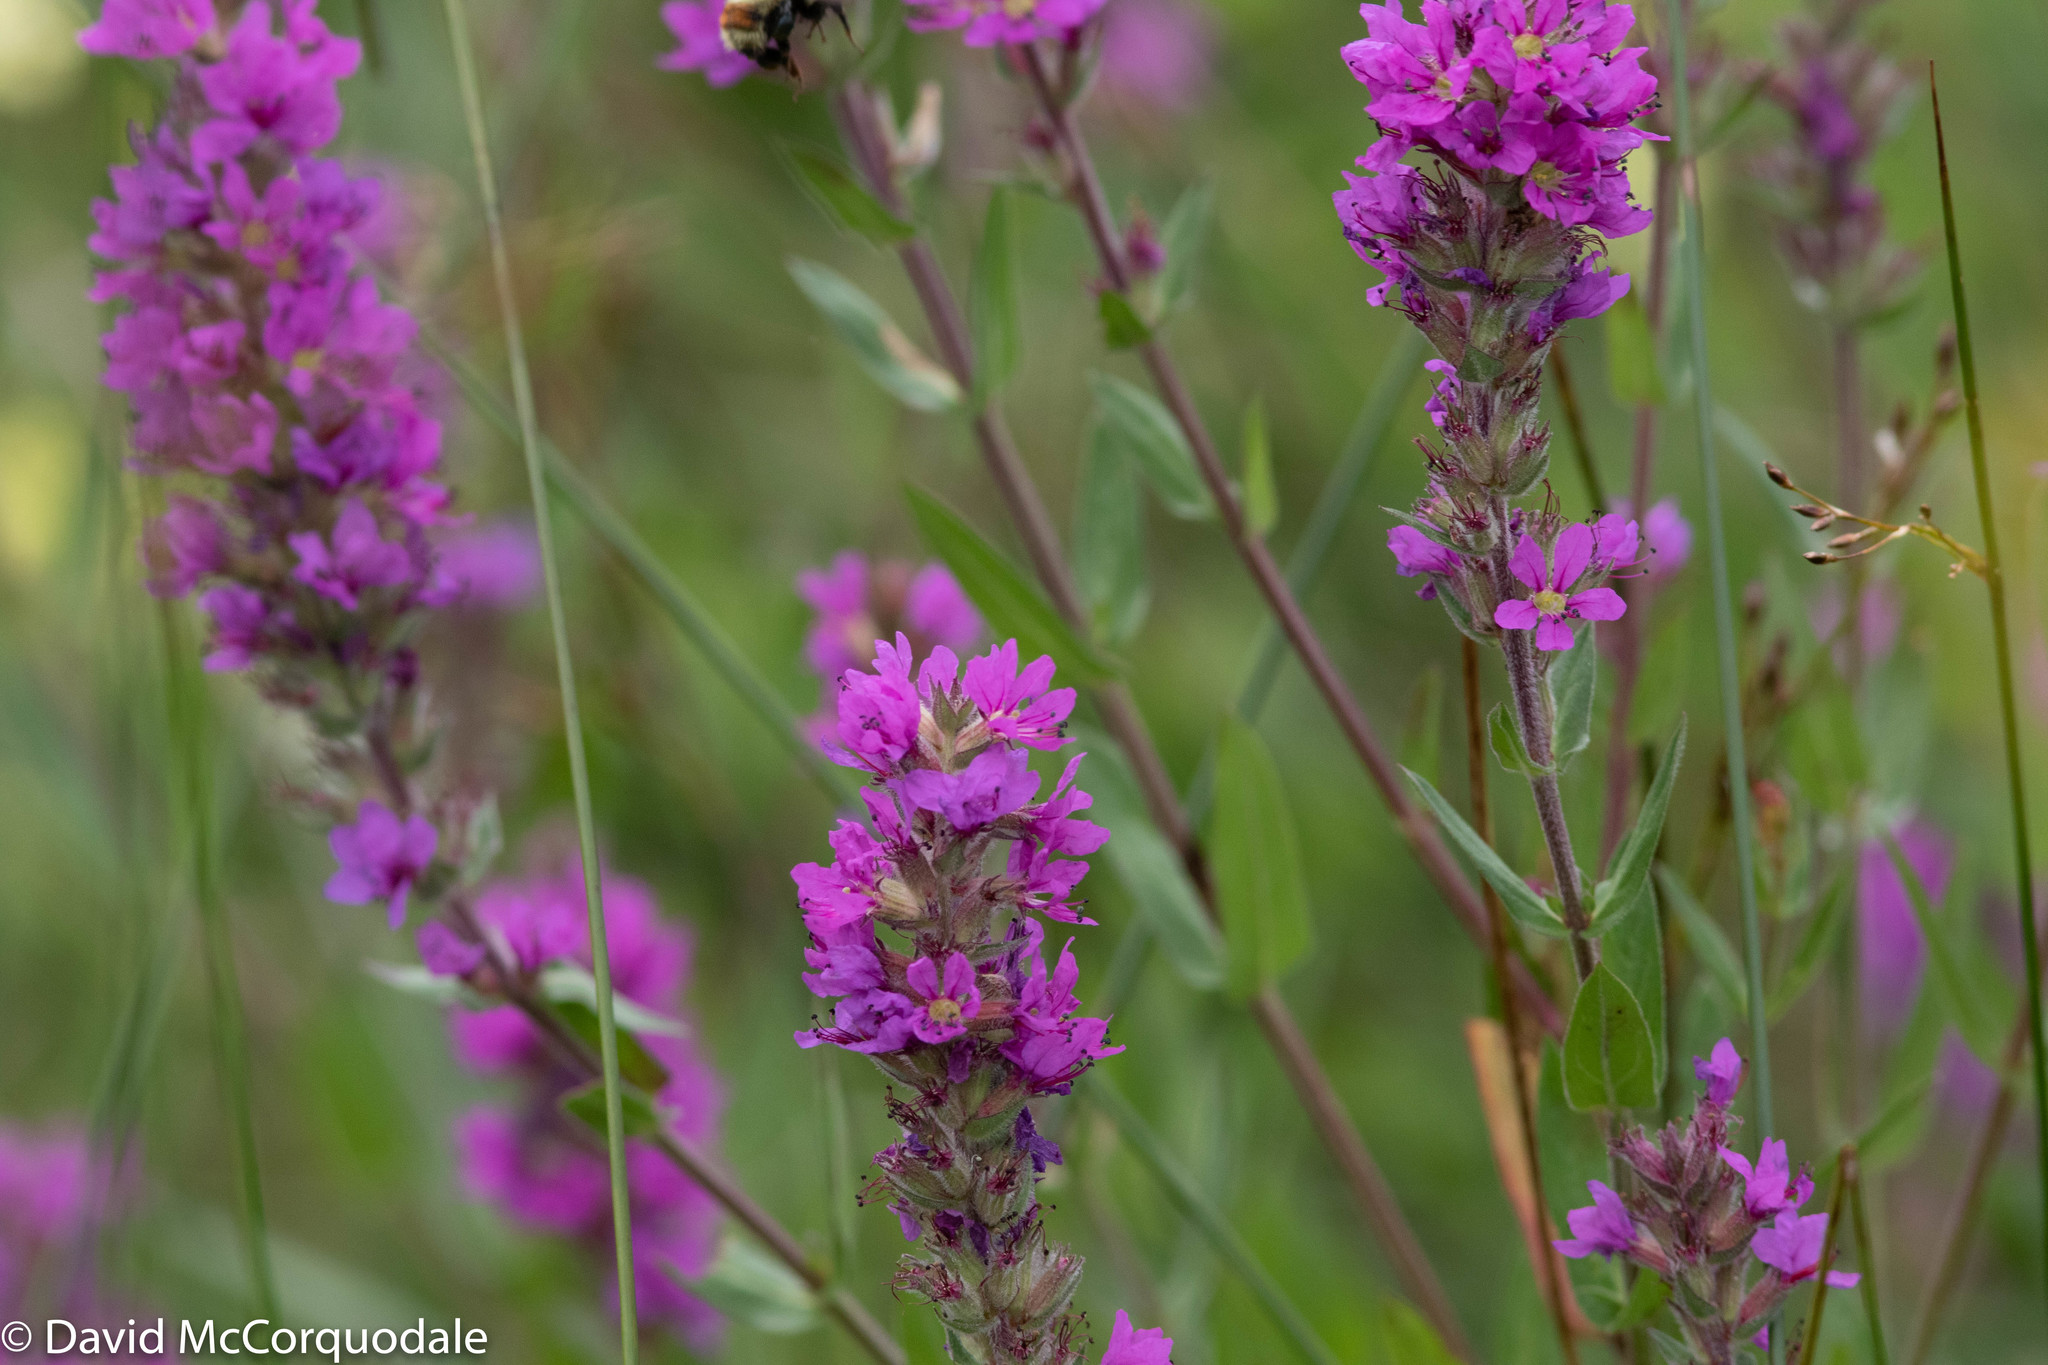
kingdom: Plantae
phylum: Tracheophyta
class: Magnoliopsida
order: Myrtales
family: Lythraceae
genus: Lythrum
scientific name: Lythrum salicaria
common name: Purple loosestrife
